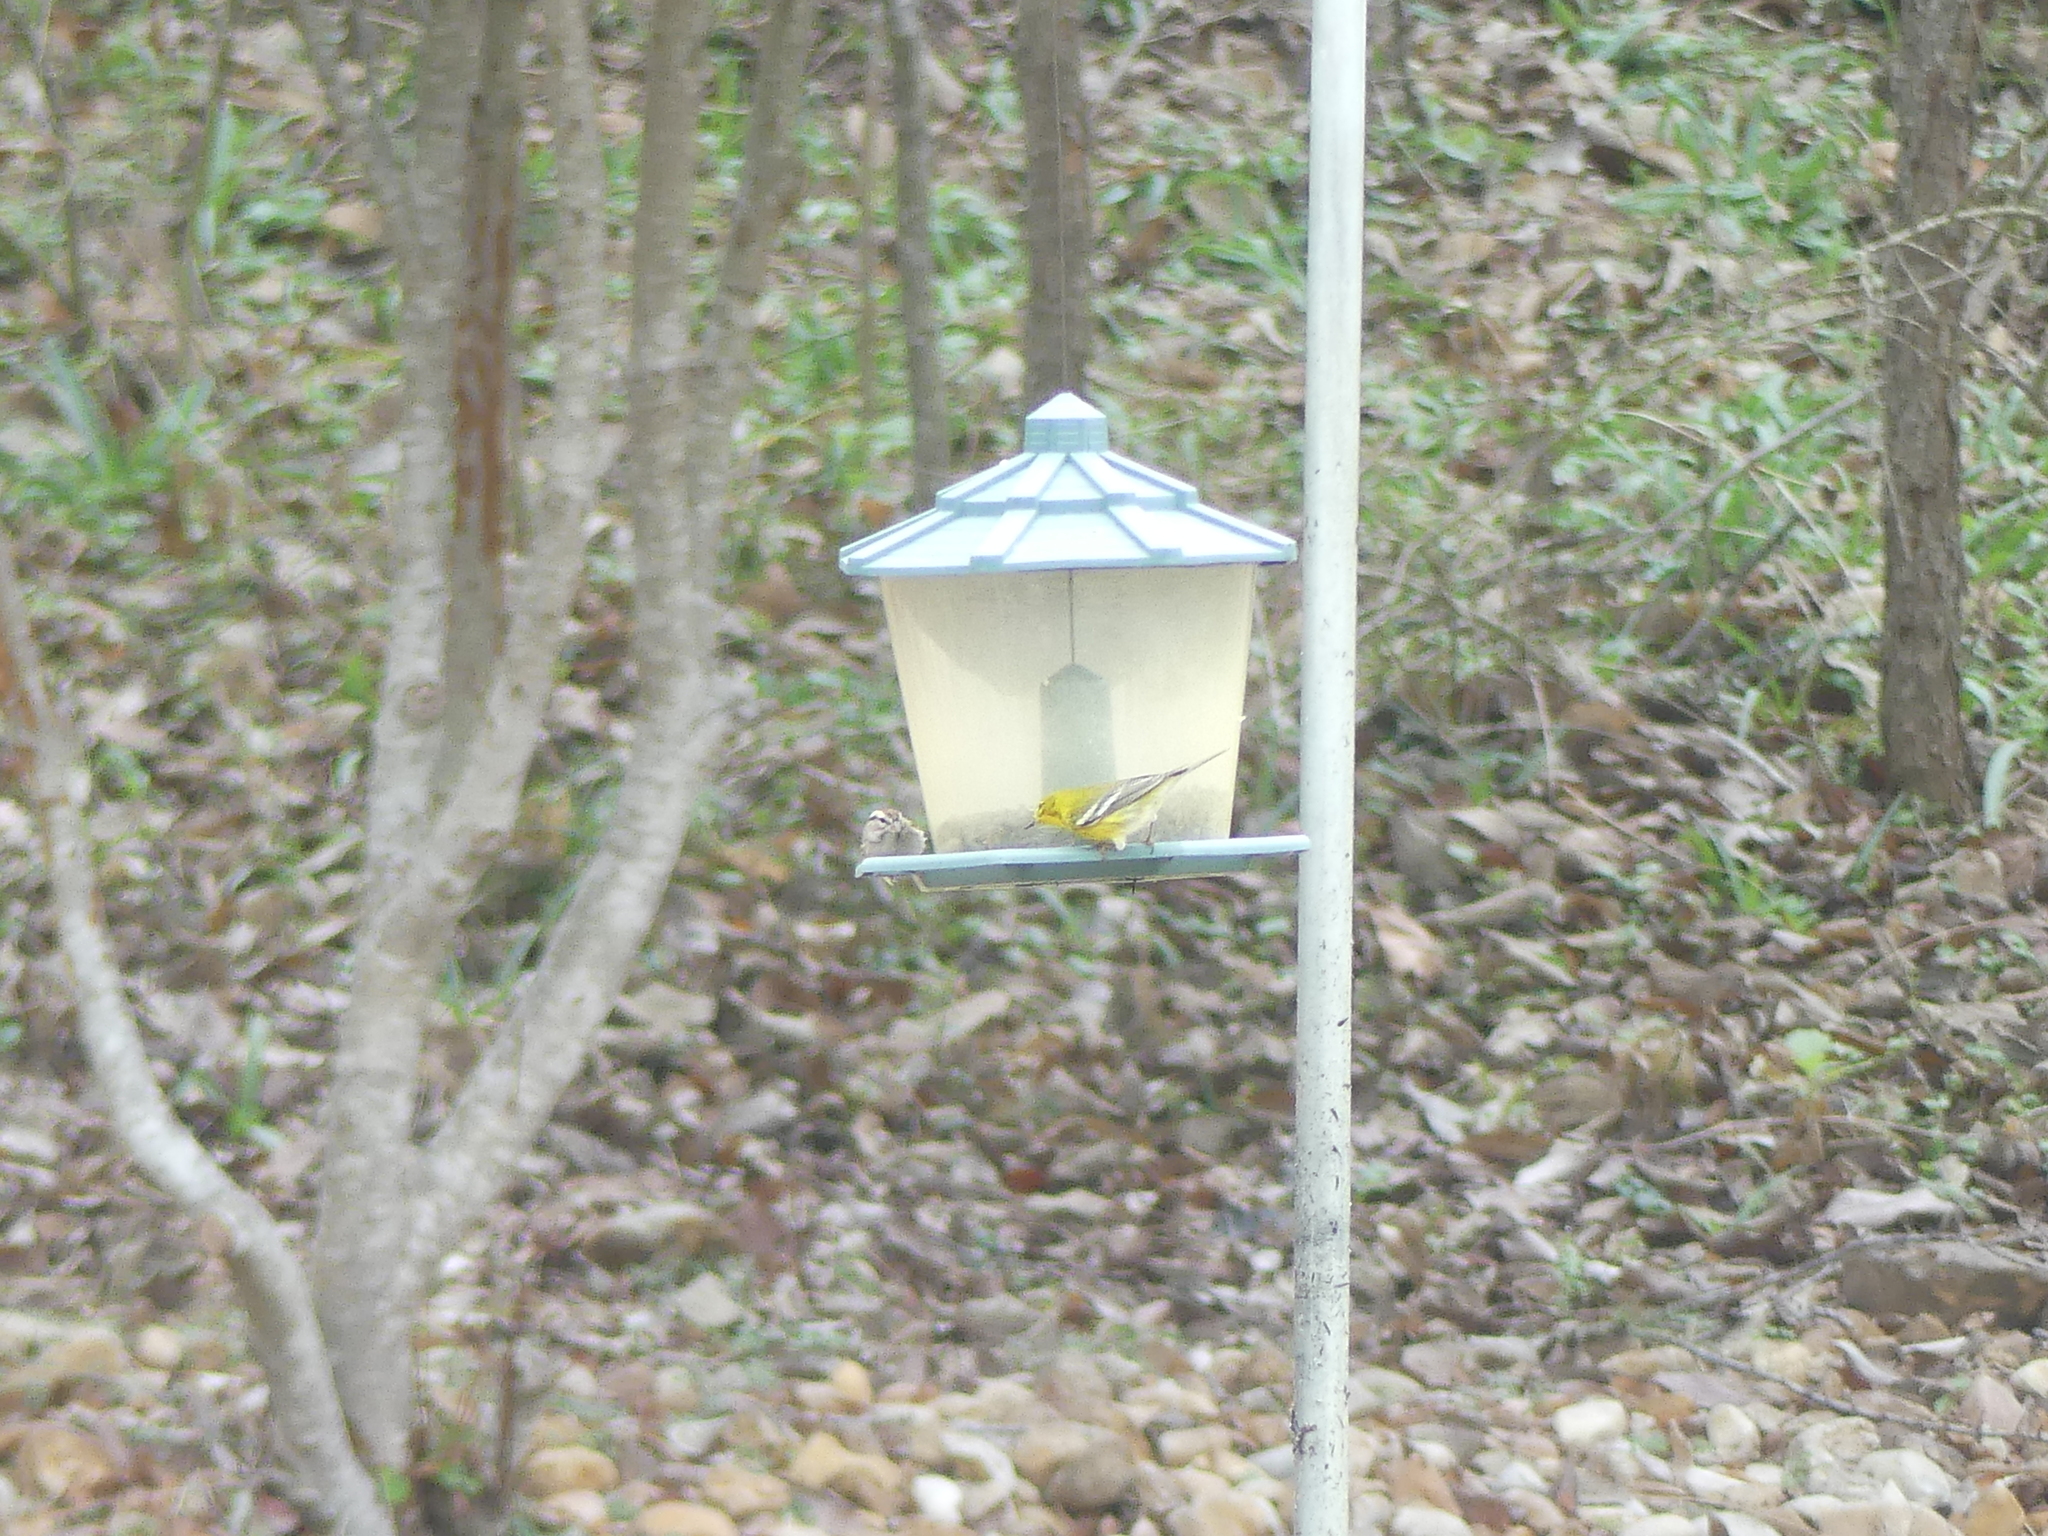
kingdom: Animalia
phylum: Chordata
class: Aves
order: Passeriformes
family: Parulidae
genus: Setophaga
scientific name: Setophaga pinus
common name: Pine warbler
